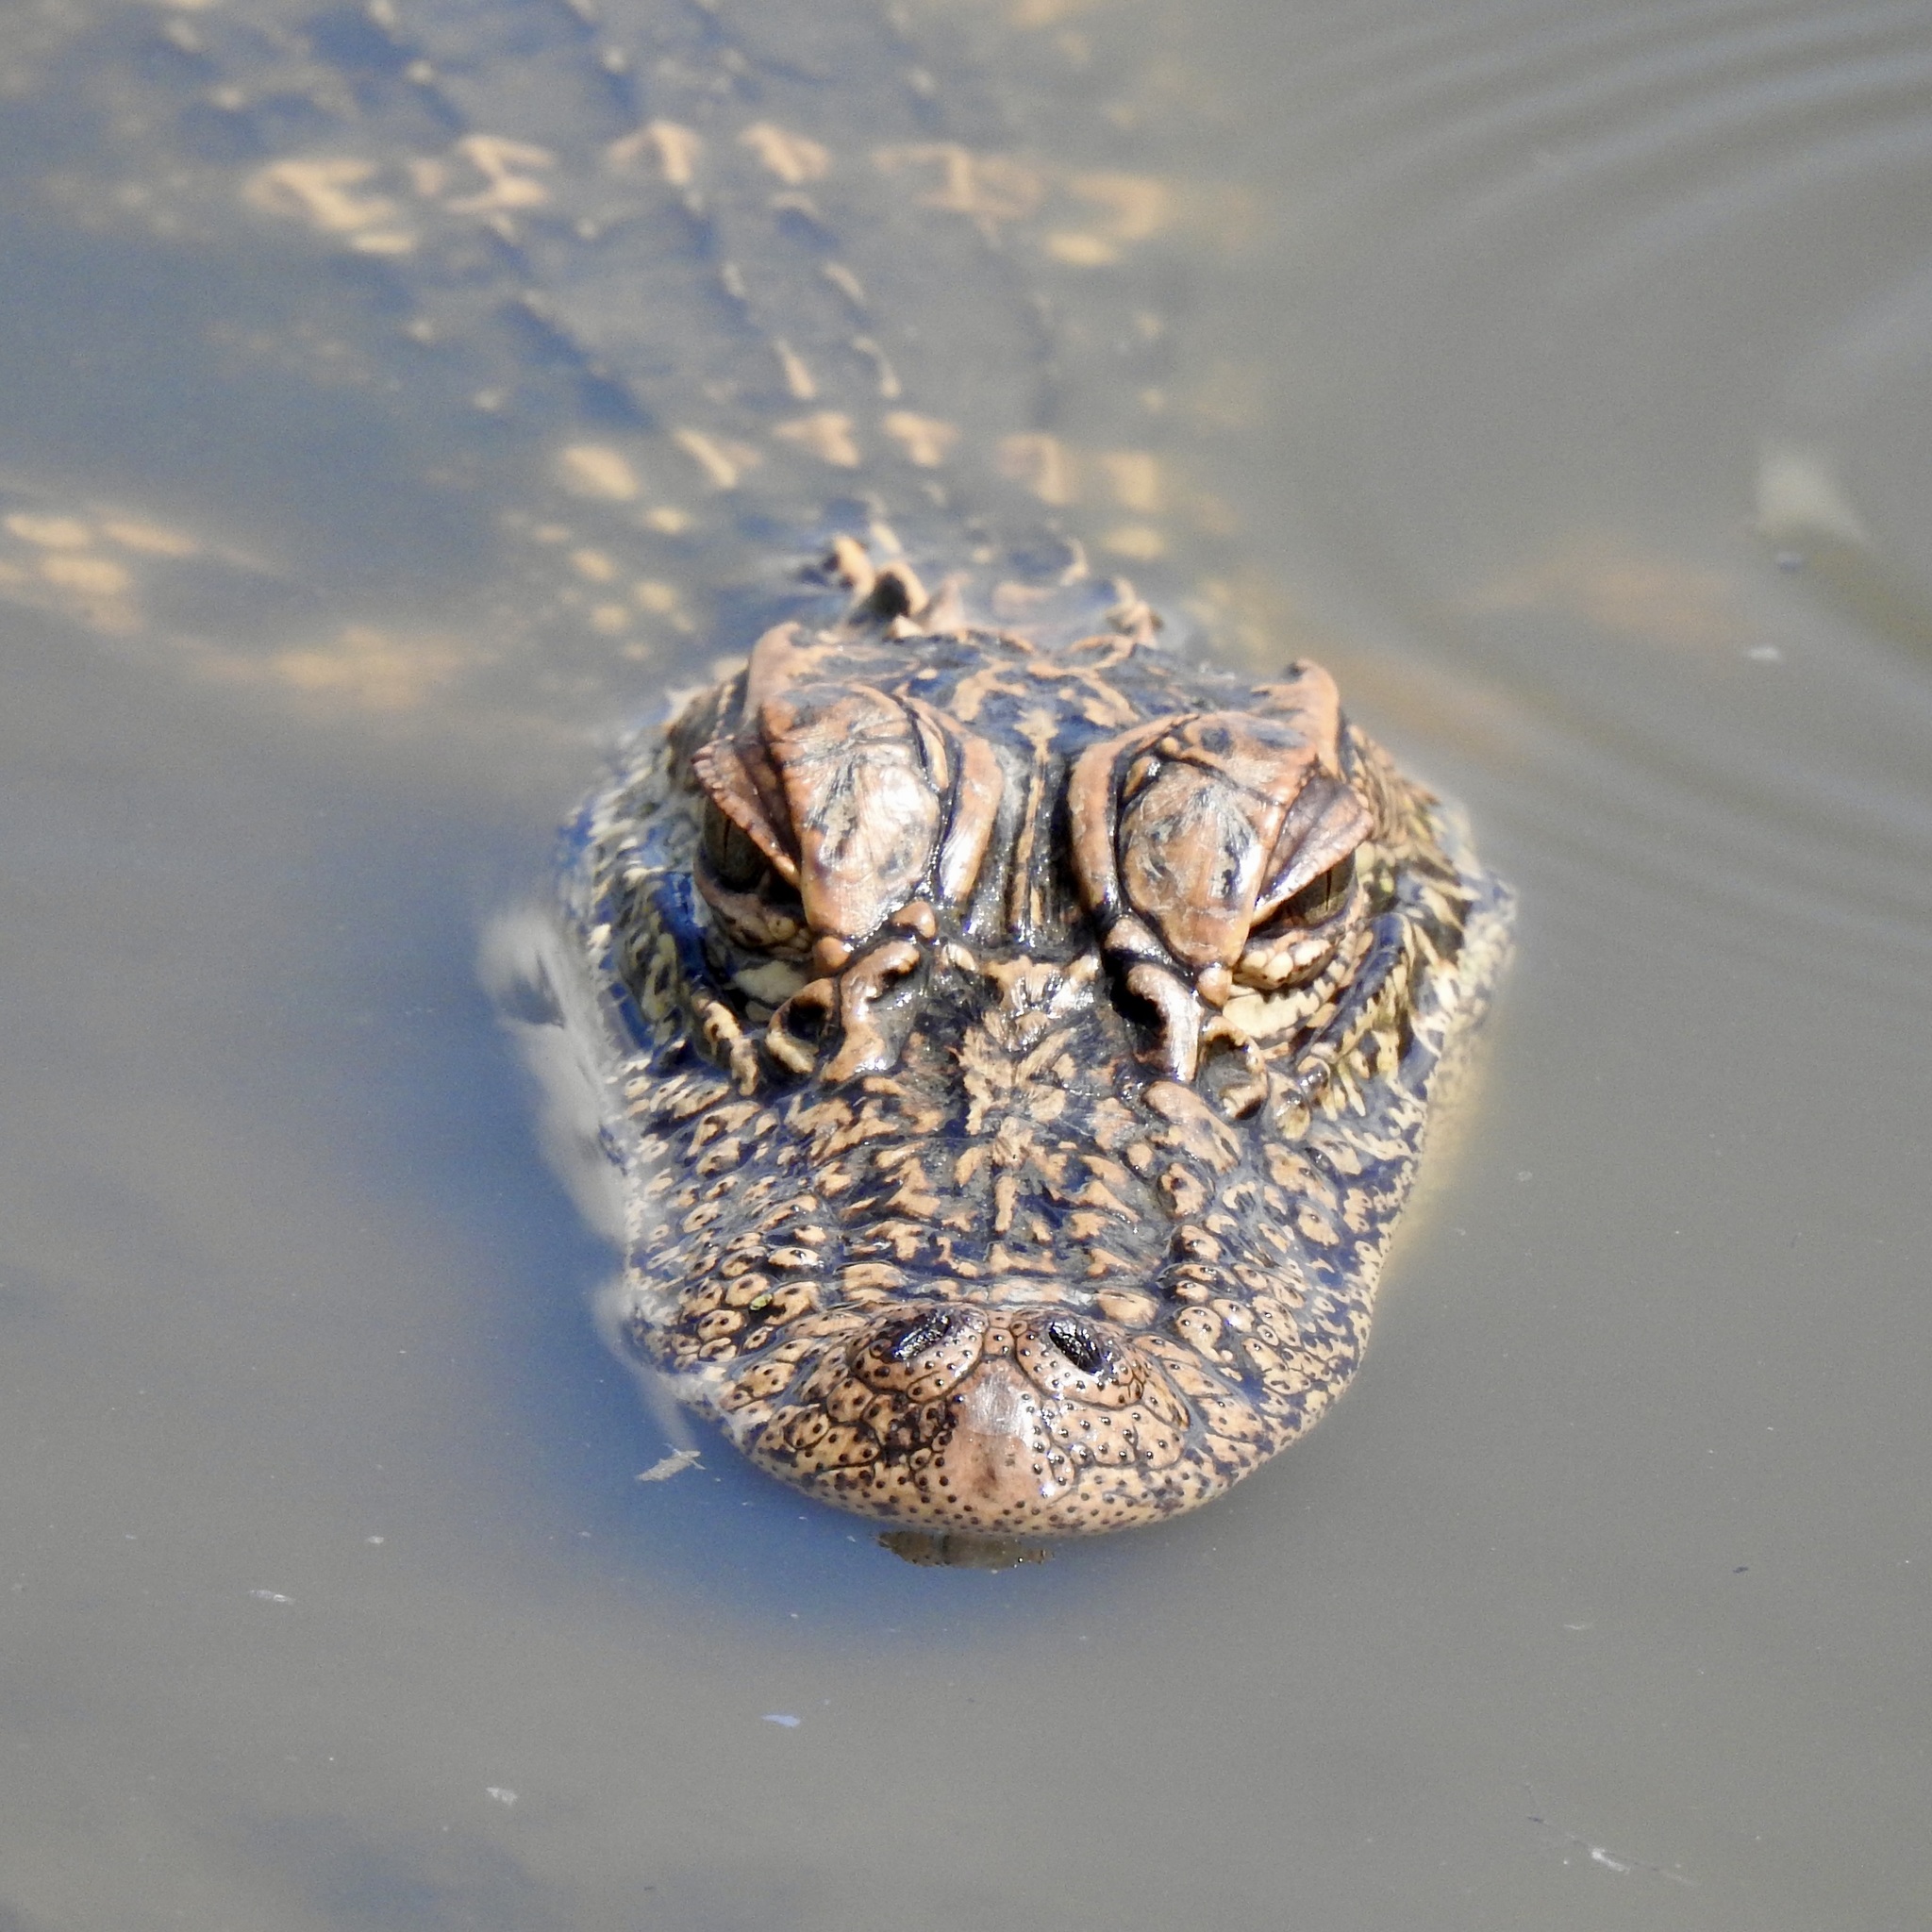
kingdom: Animalia
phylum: Chordata
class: Crocodylia
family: Alligatoridae
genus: Alligator
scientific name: Alligator mississippiensis
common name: American alligator
